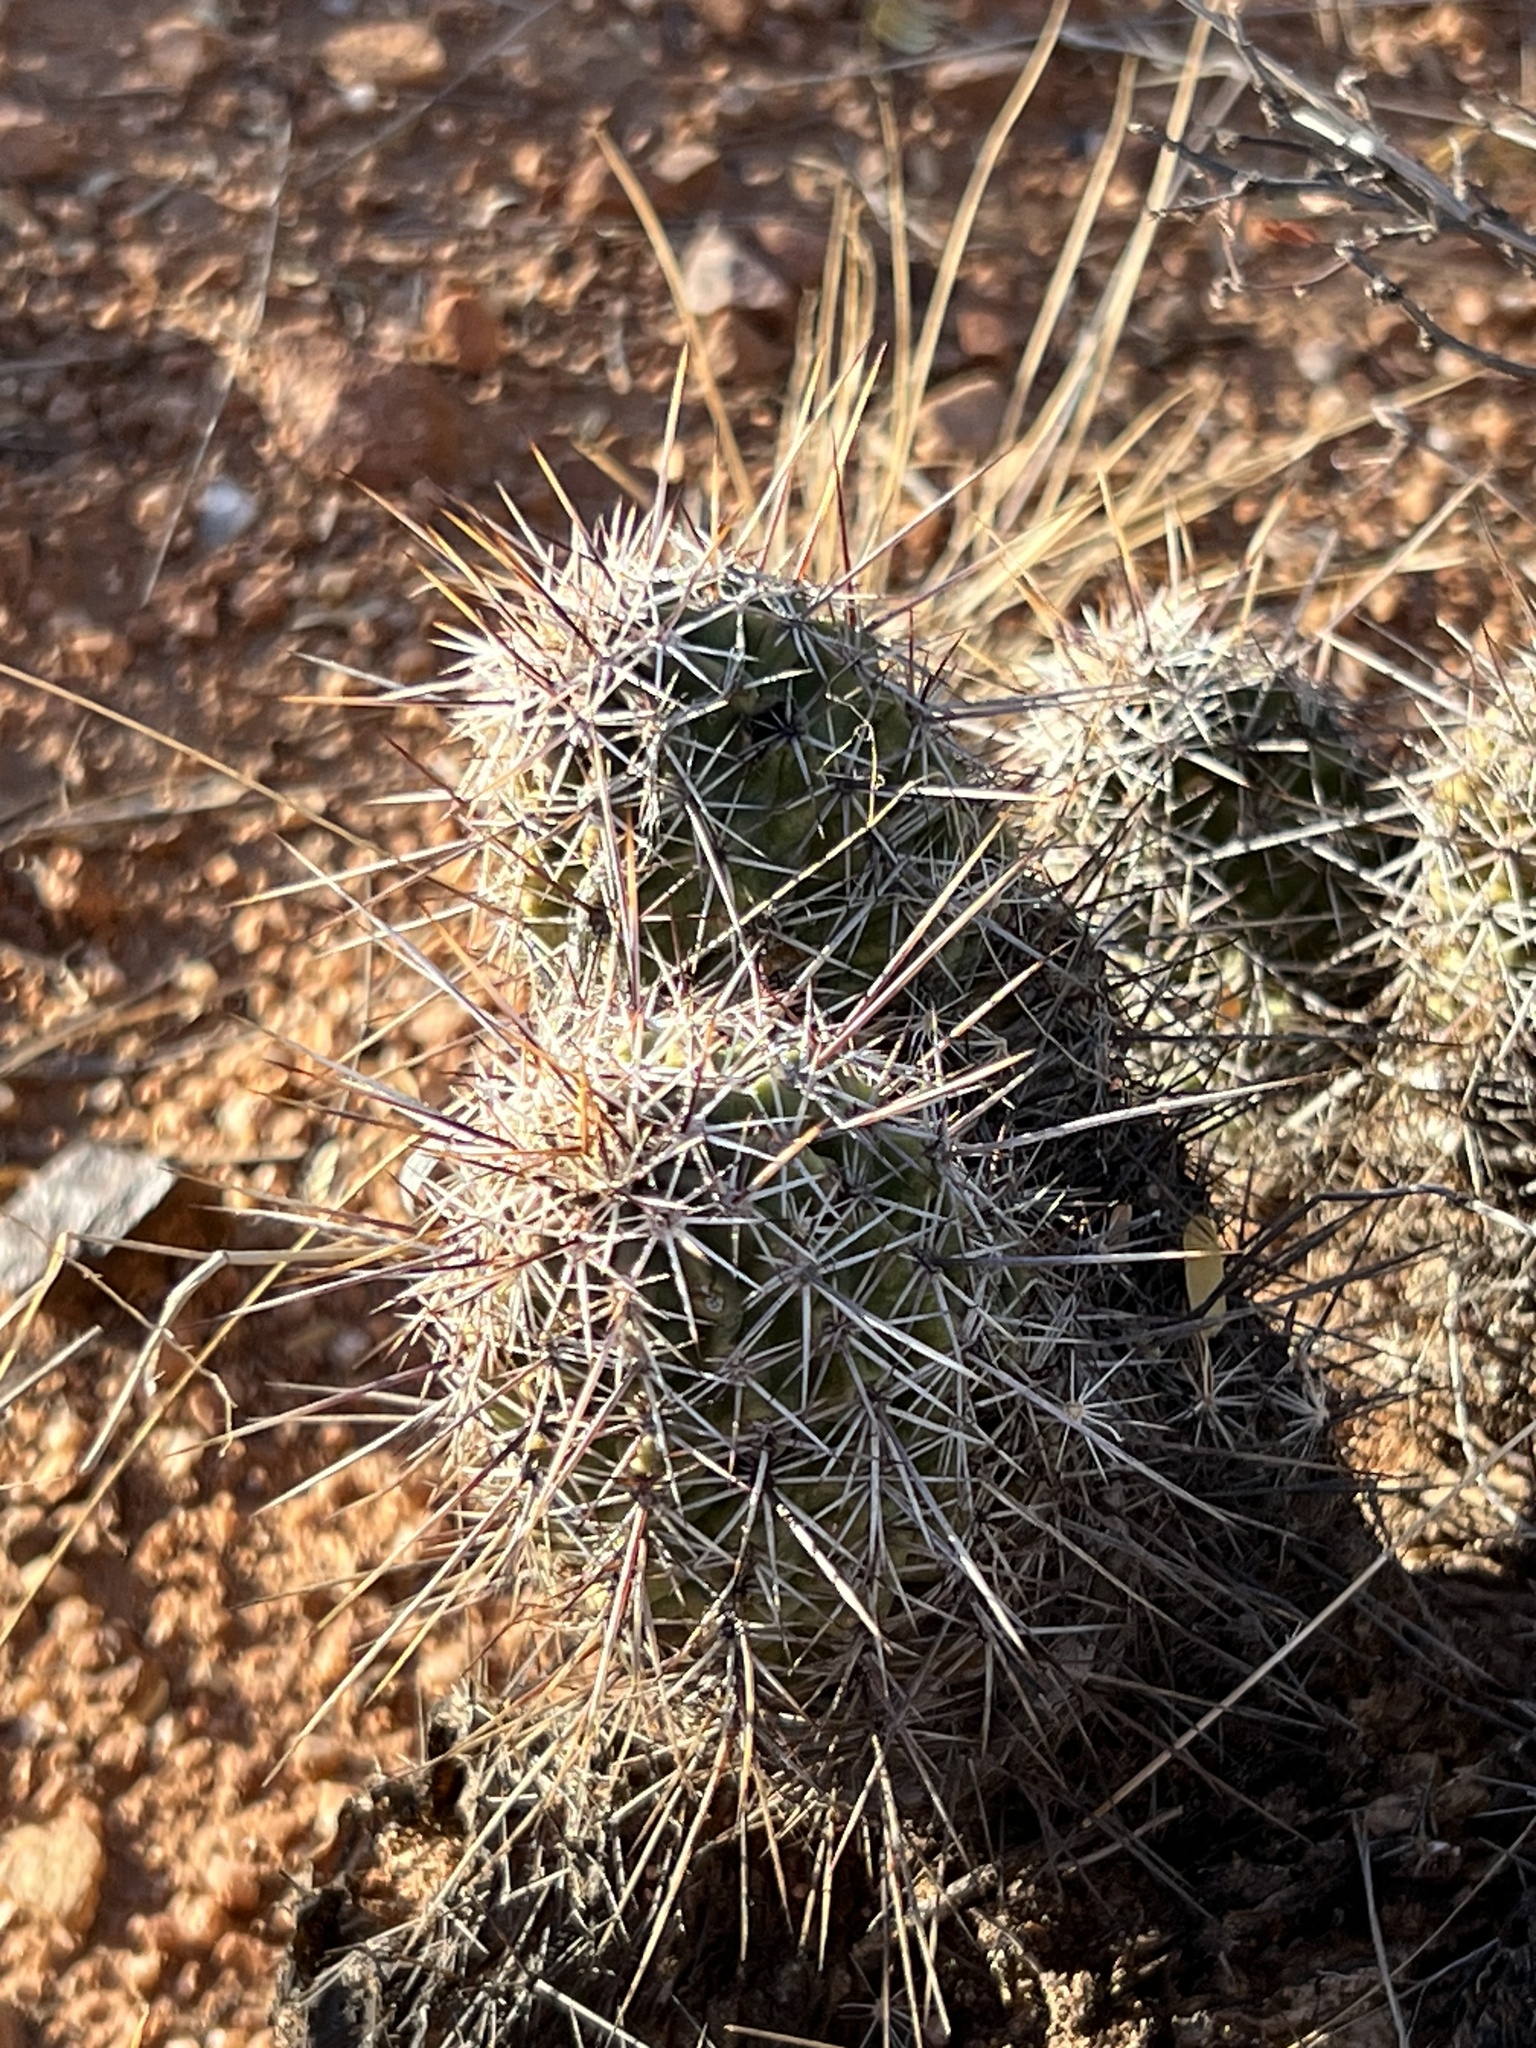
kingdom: Plantae
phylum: Tracheophyta
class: Magnoliopsida
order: Caryophyllales
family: Cactaceae
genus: Echinocereus
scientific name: Echinocereus fendleri
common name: Fendler's hedgehog cactus
